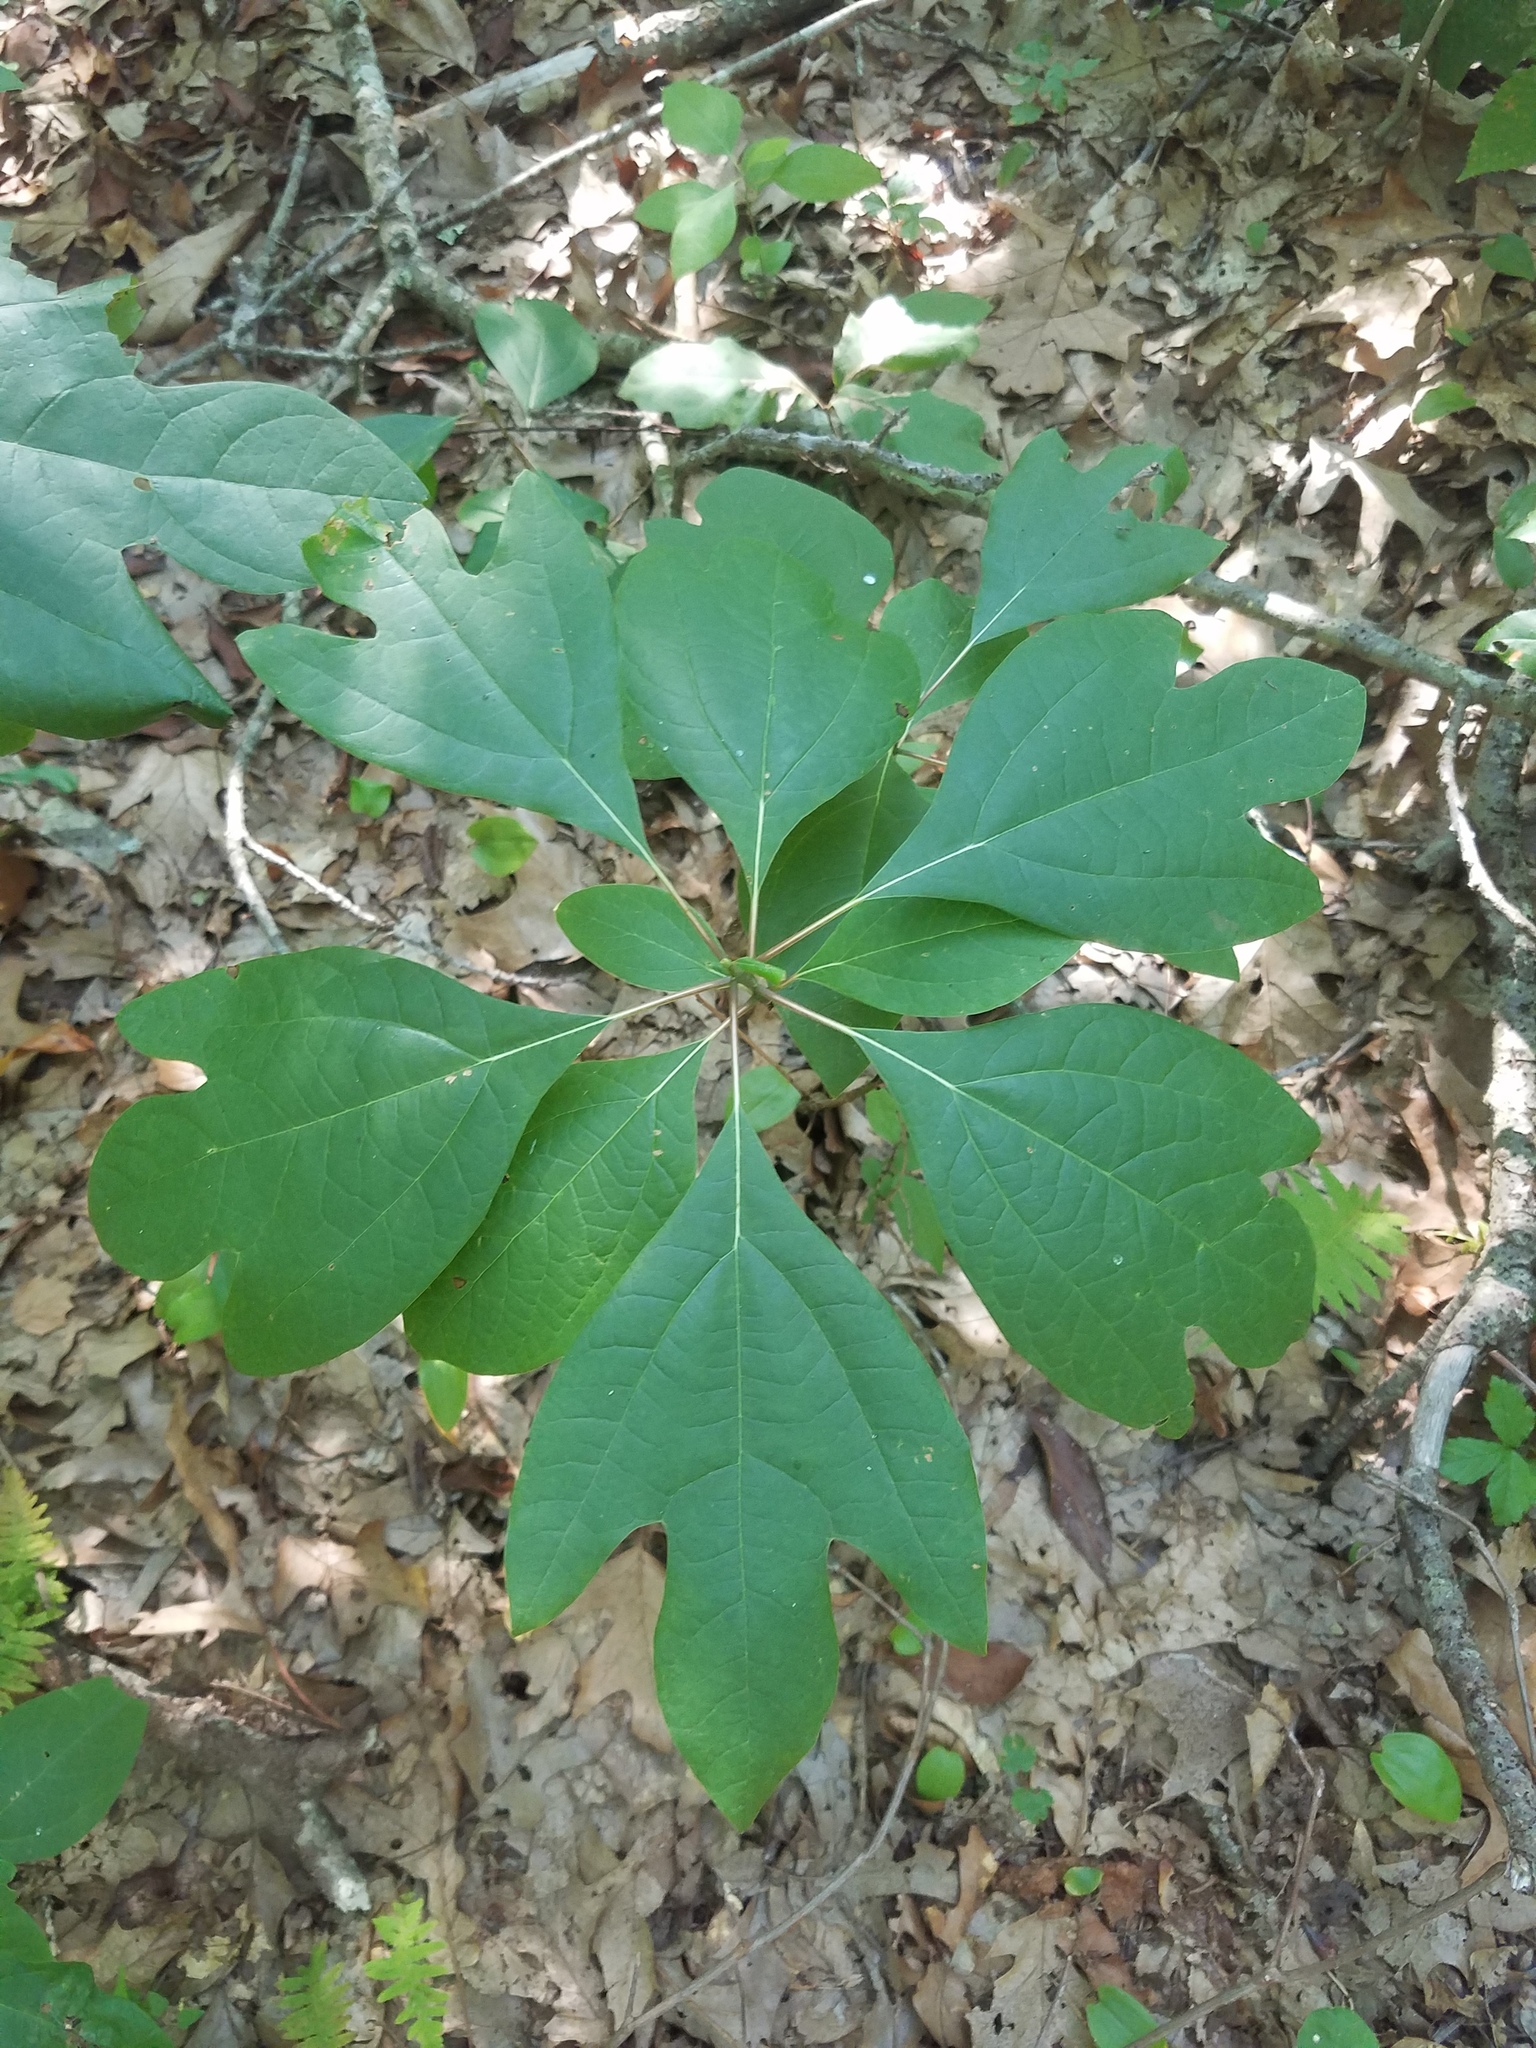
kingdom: Plantae
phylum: Tracheophyta
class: Magnoliopsida
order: Laurales
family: Lauraceae
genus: Sassafras
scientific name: Sassafras albidum
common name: Sassafras
